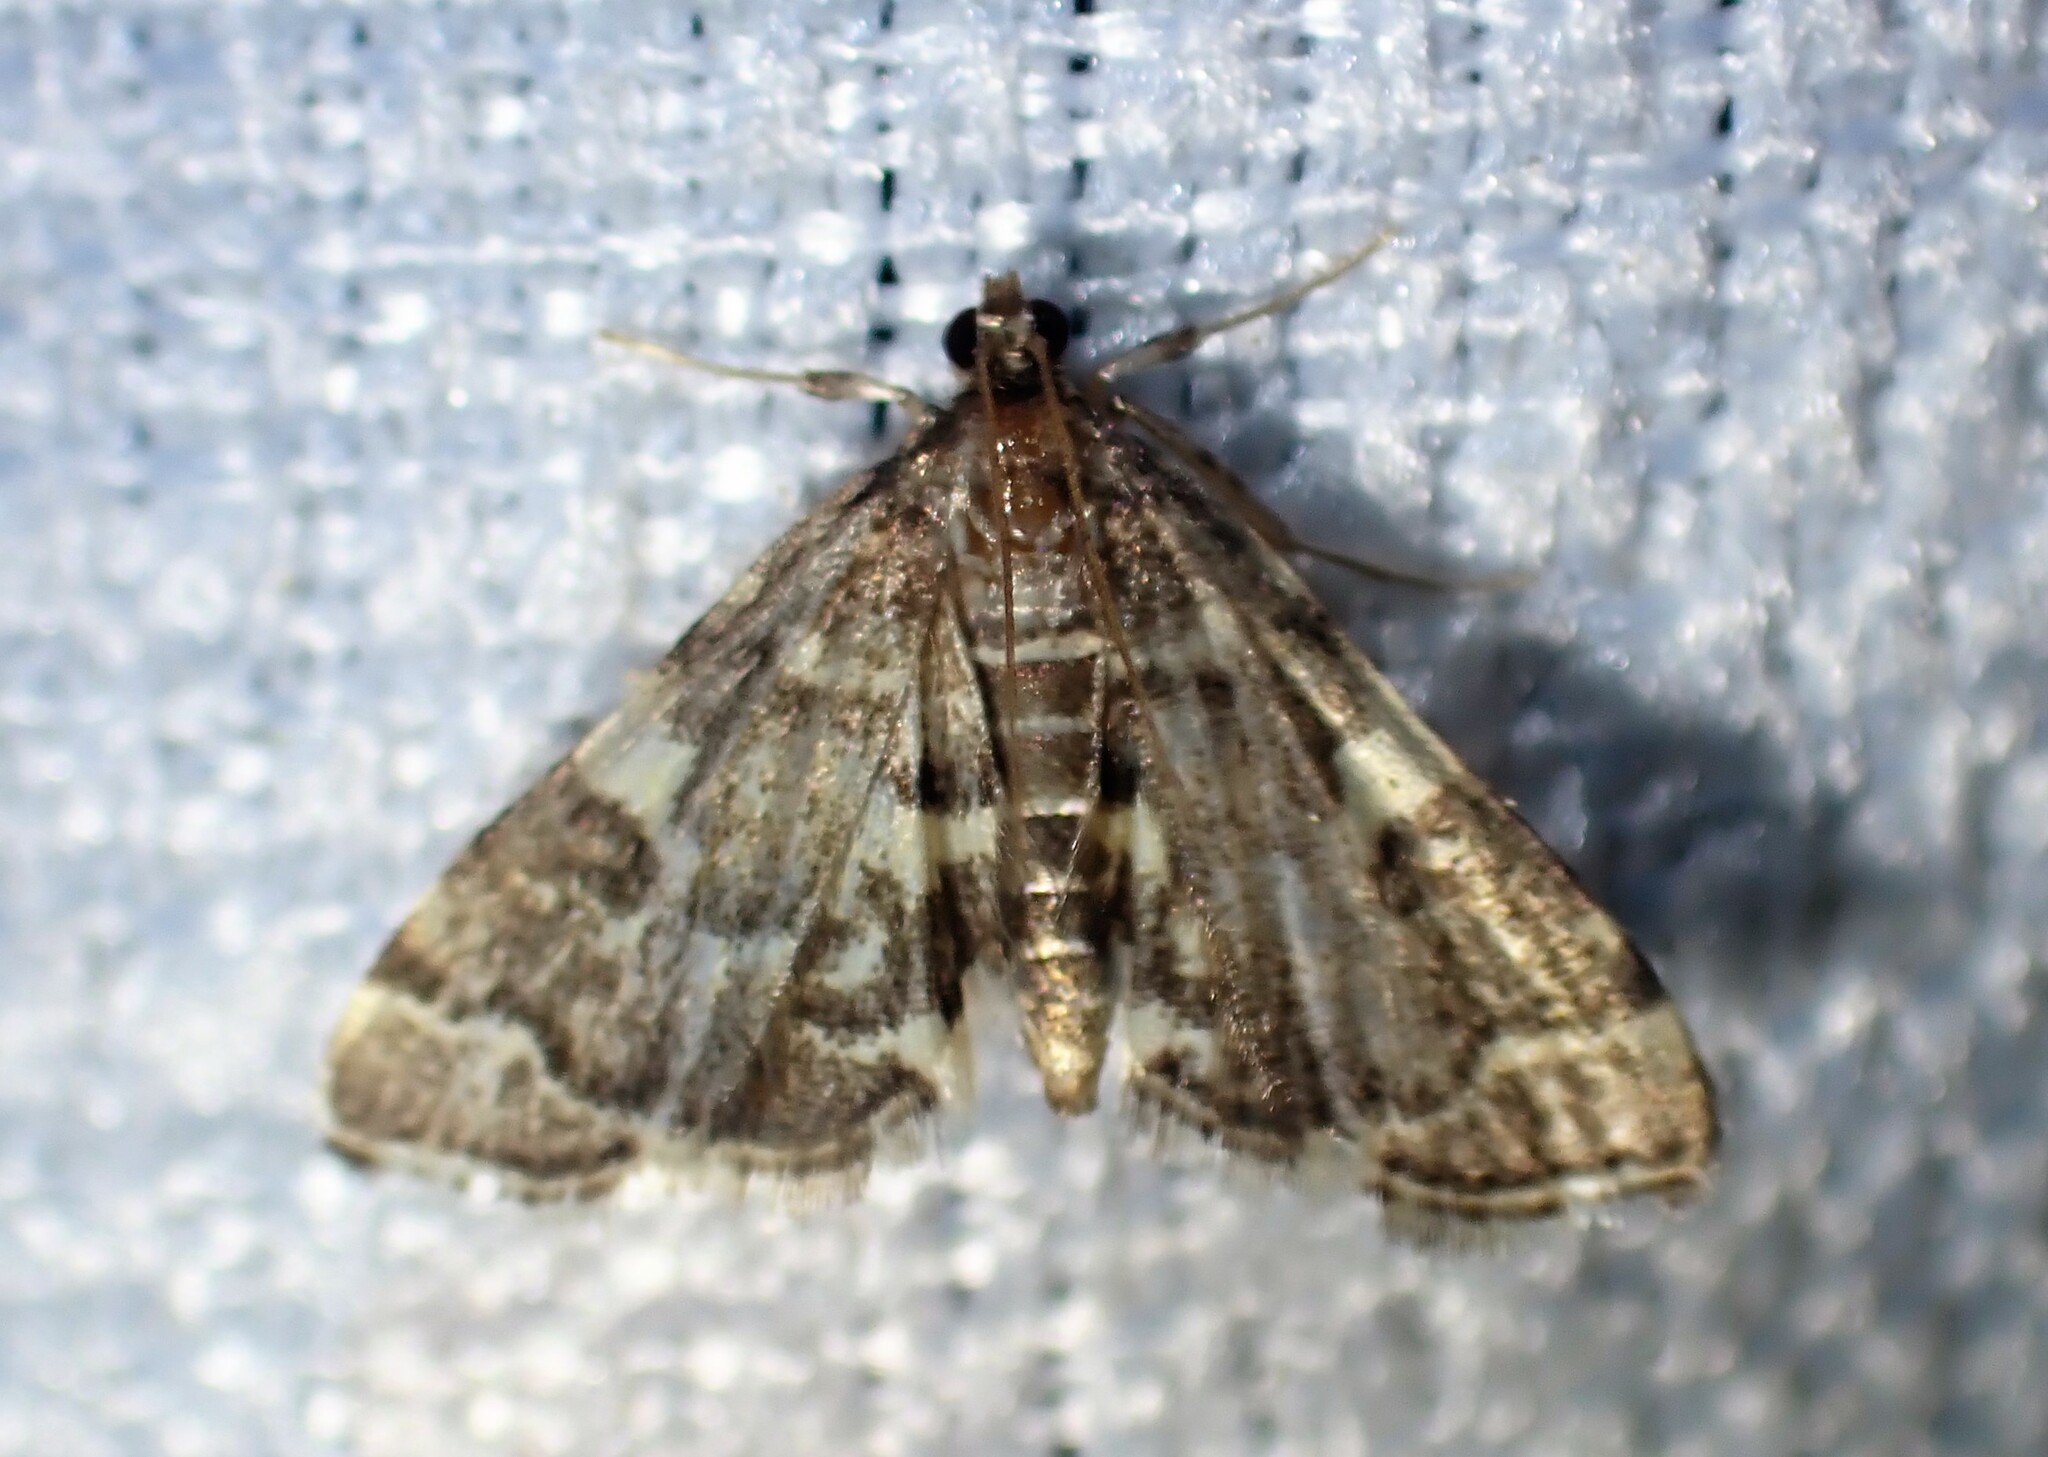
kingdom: Animalia
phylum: Arthropoda
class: Insecta
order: Lepidoptera
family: Crambidae
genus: Anageshna
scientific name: Anageshna primordialis
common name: Yellow-spotted webworm moth
